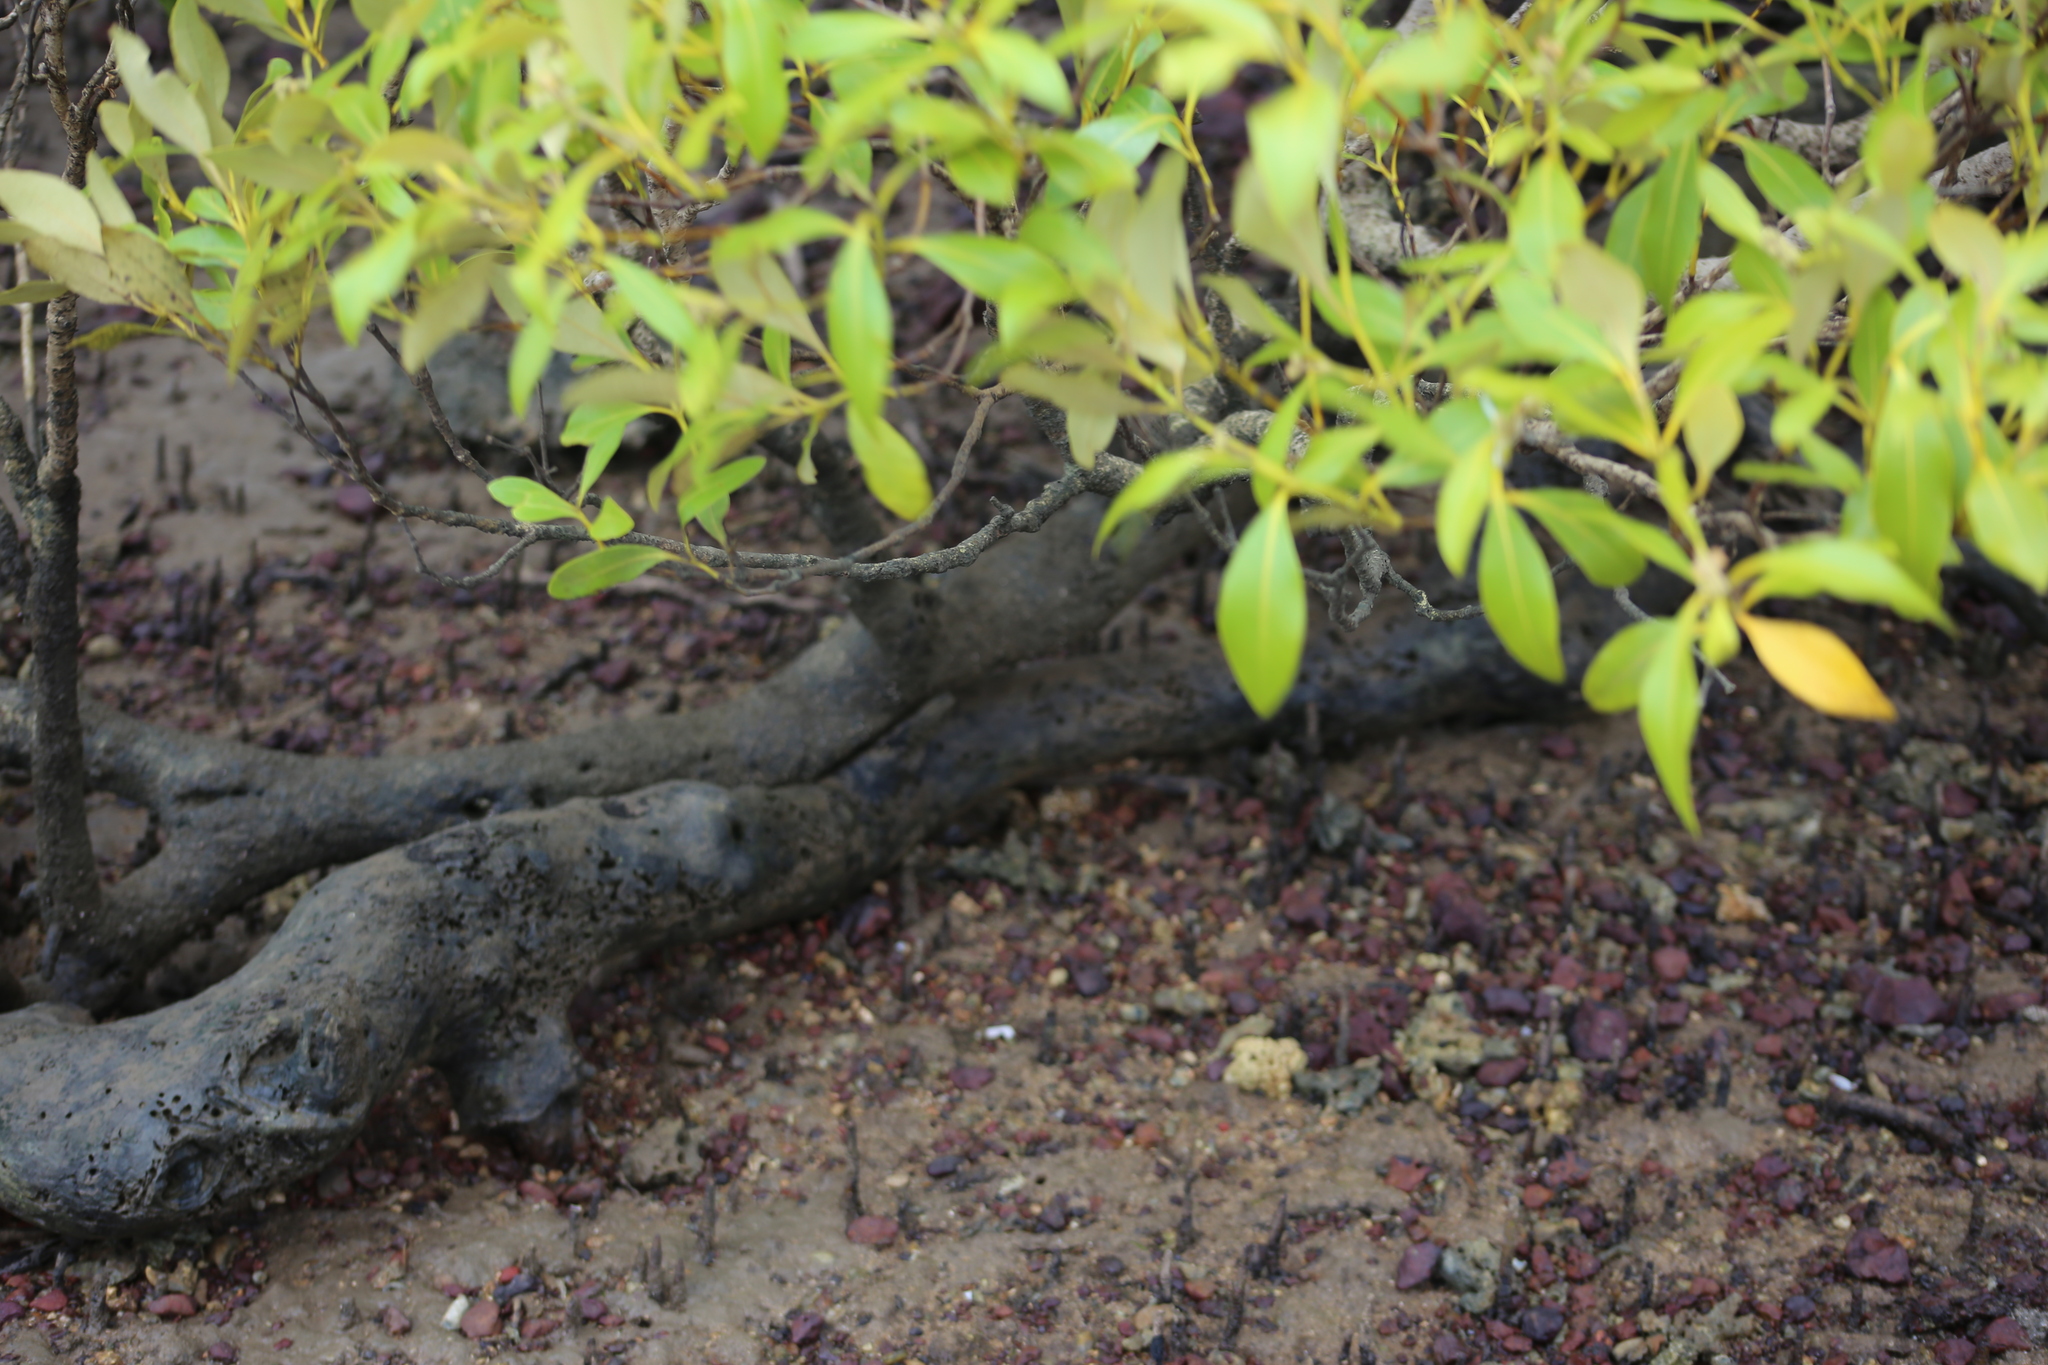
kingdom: Plantae
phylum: Tracheophyta
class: Magnoliopsida
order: Lamiales
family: Acanthaceae
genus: Avicennia
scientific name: Avicennia marina
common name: Gray mangrove
